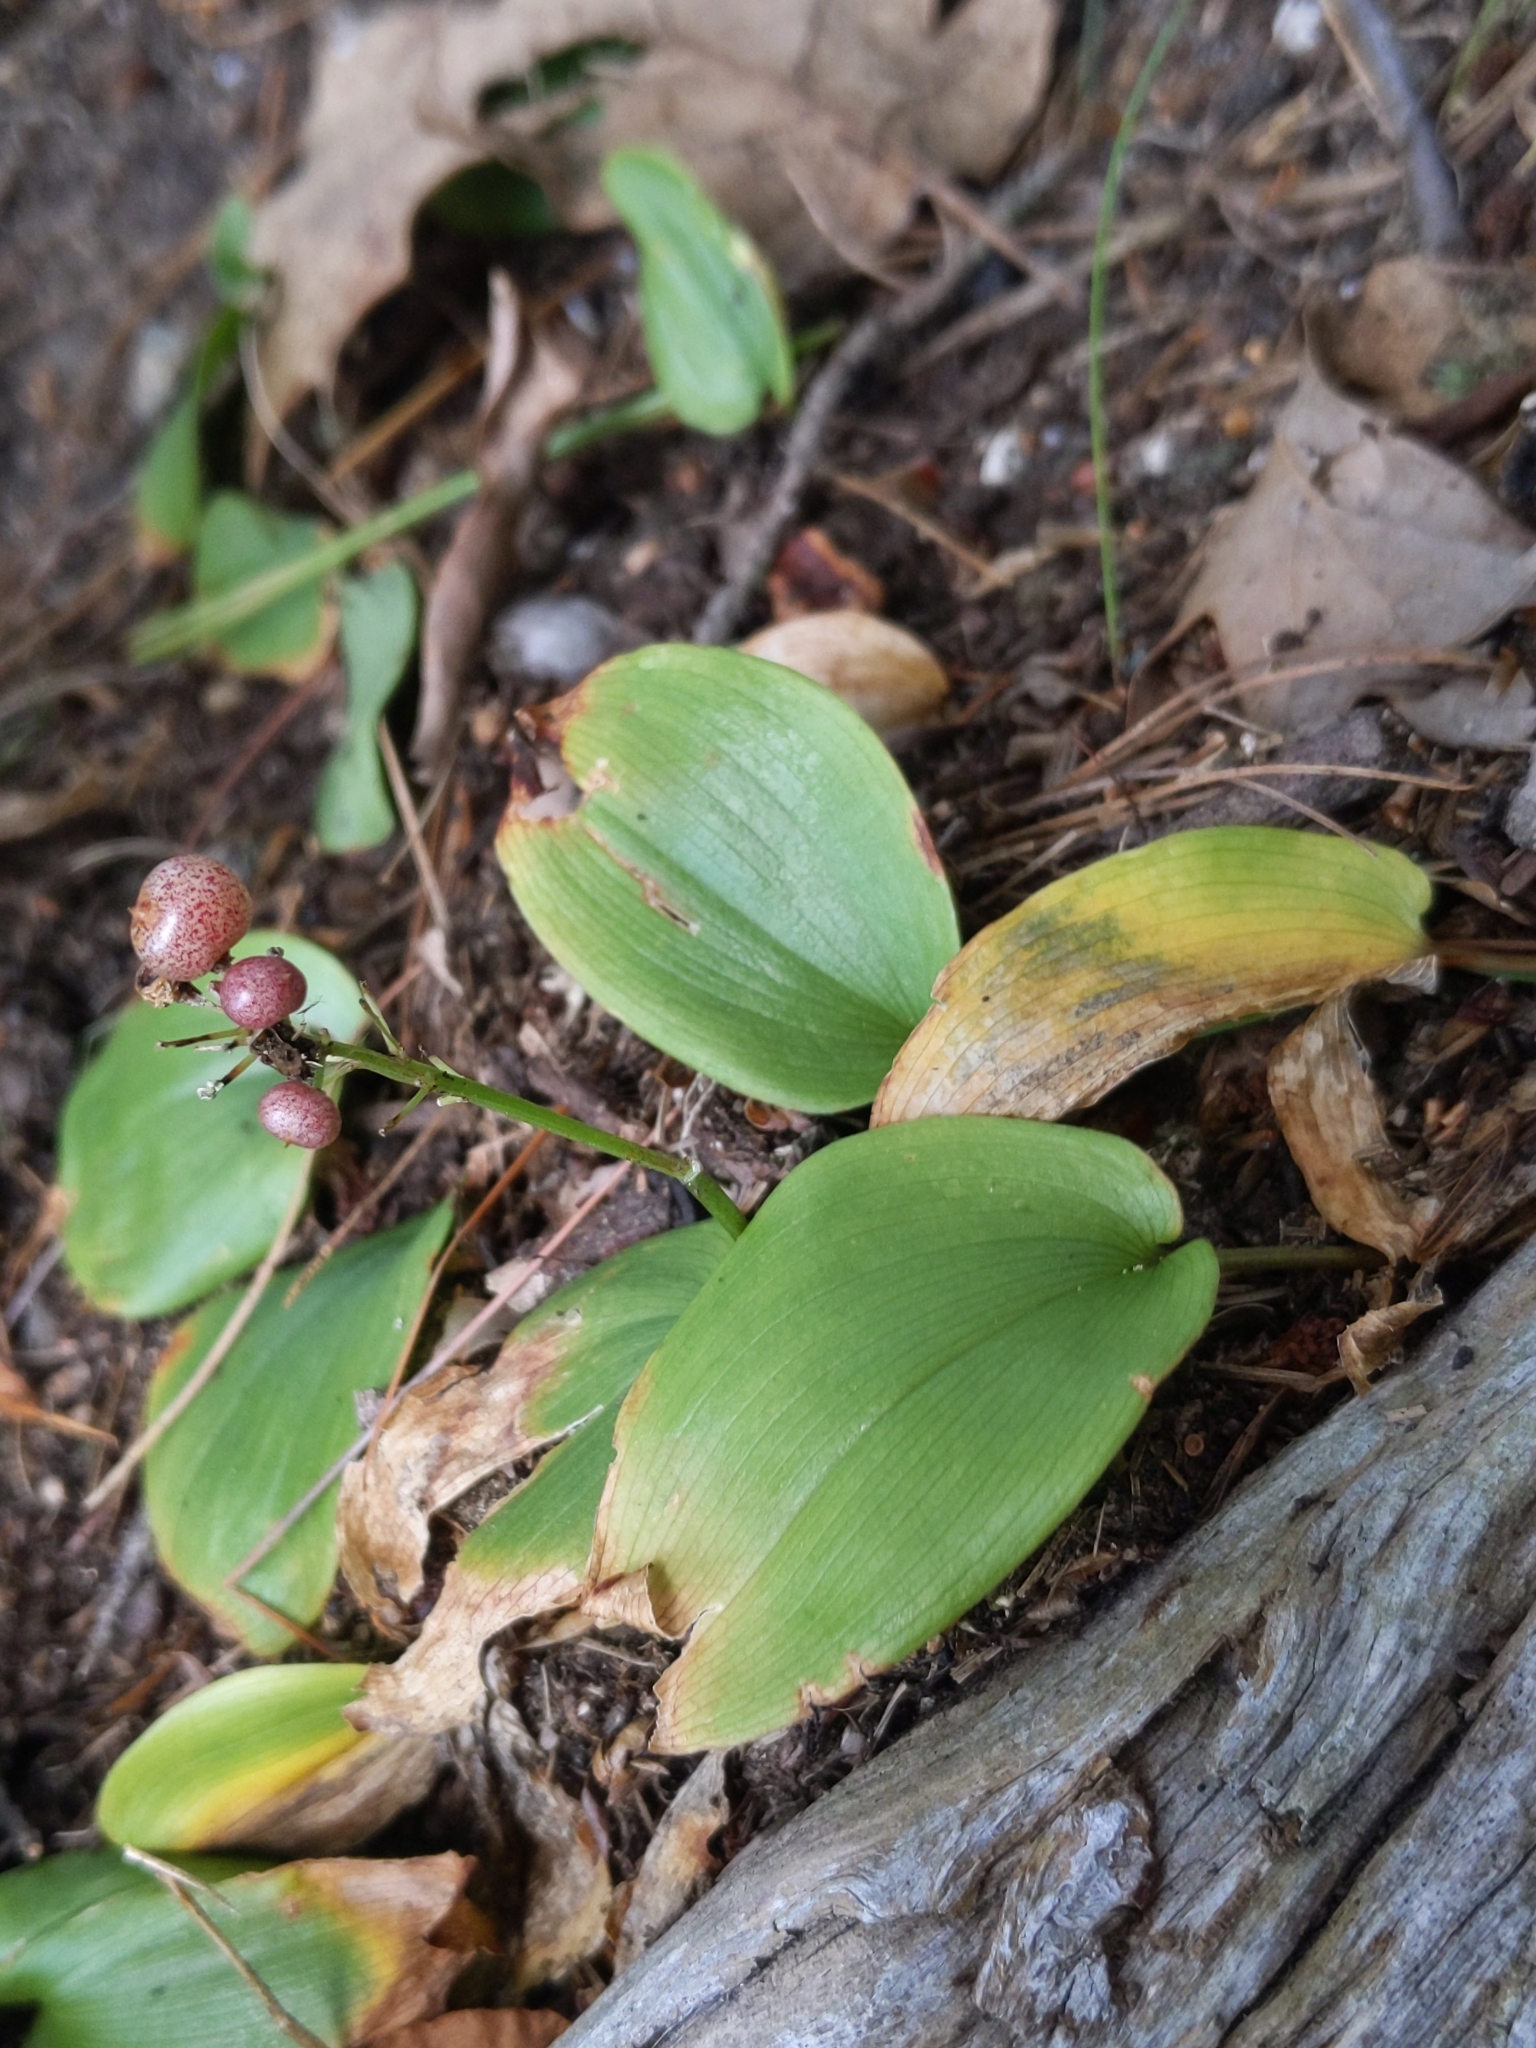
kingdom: Plantae
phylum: Tracheophyta
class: Liliopsida
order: Asparagales
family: Asparagaceae
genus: Maianthemum
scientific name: Maianthemum canadense
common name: False lily-of-the-valley
